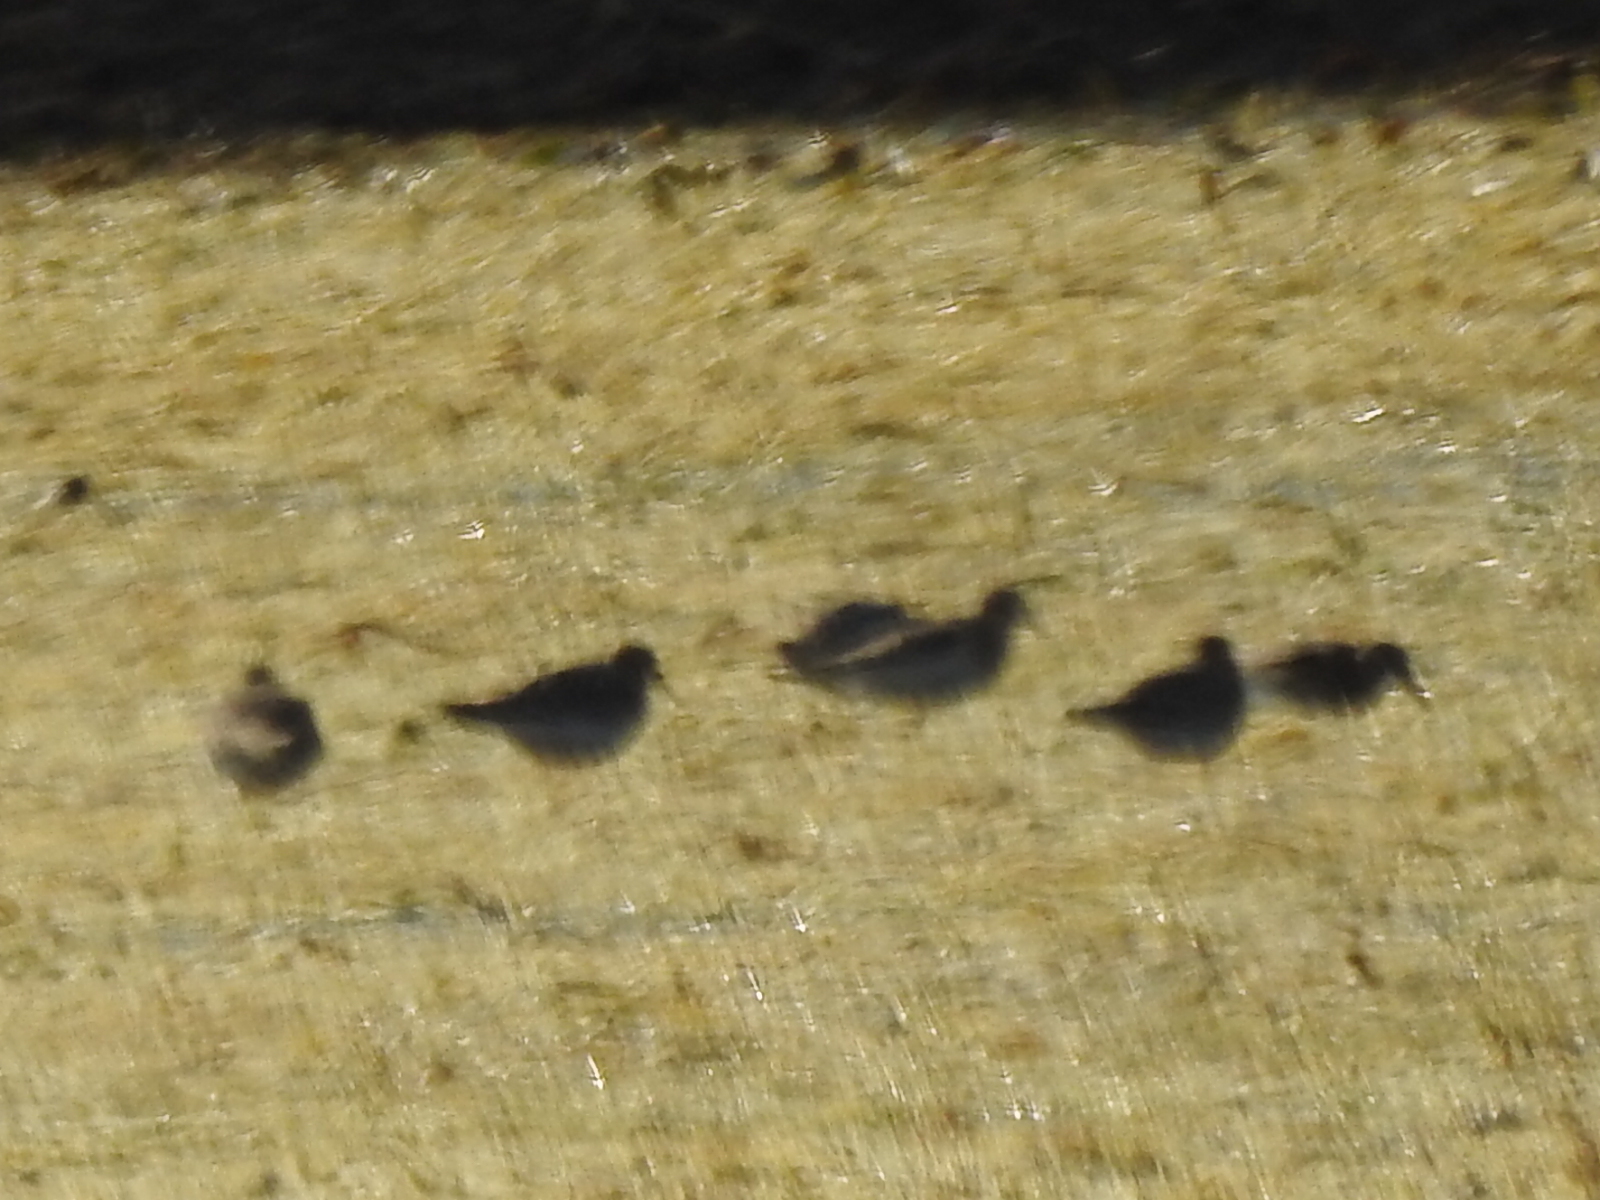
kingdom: Animalia
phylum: Chordata
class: Aves
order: Charadriiformes
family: Scolopacidae
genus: Calidris
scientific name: Calidris bairdii
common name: Baird's sandpiper
